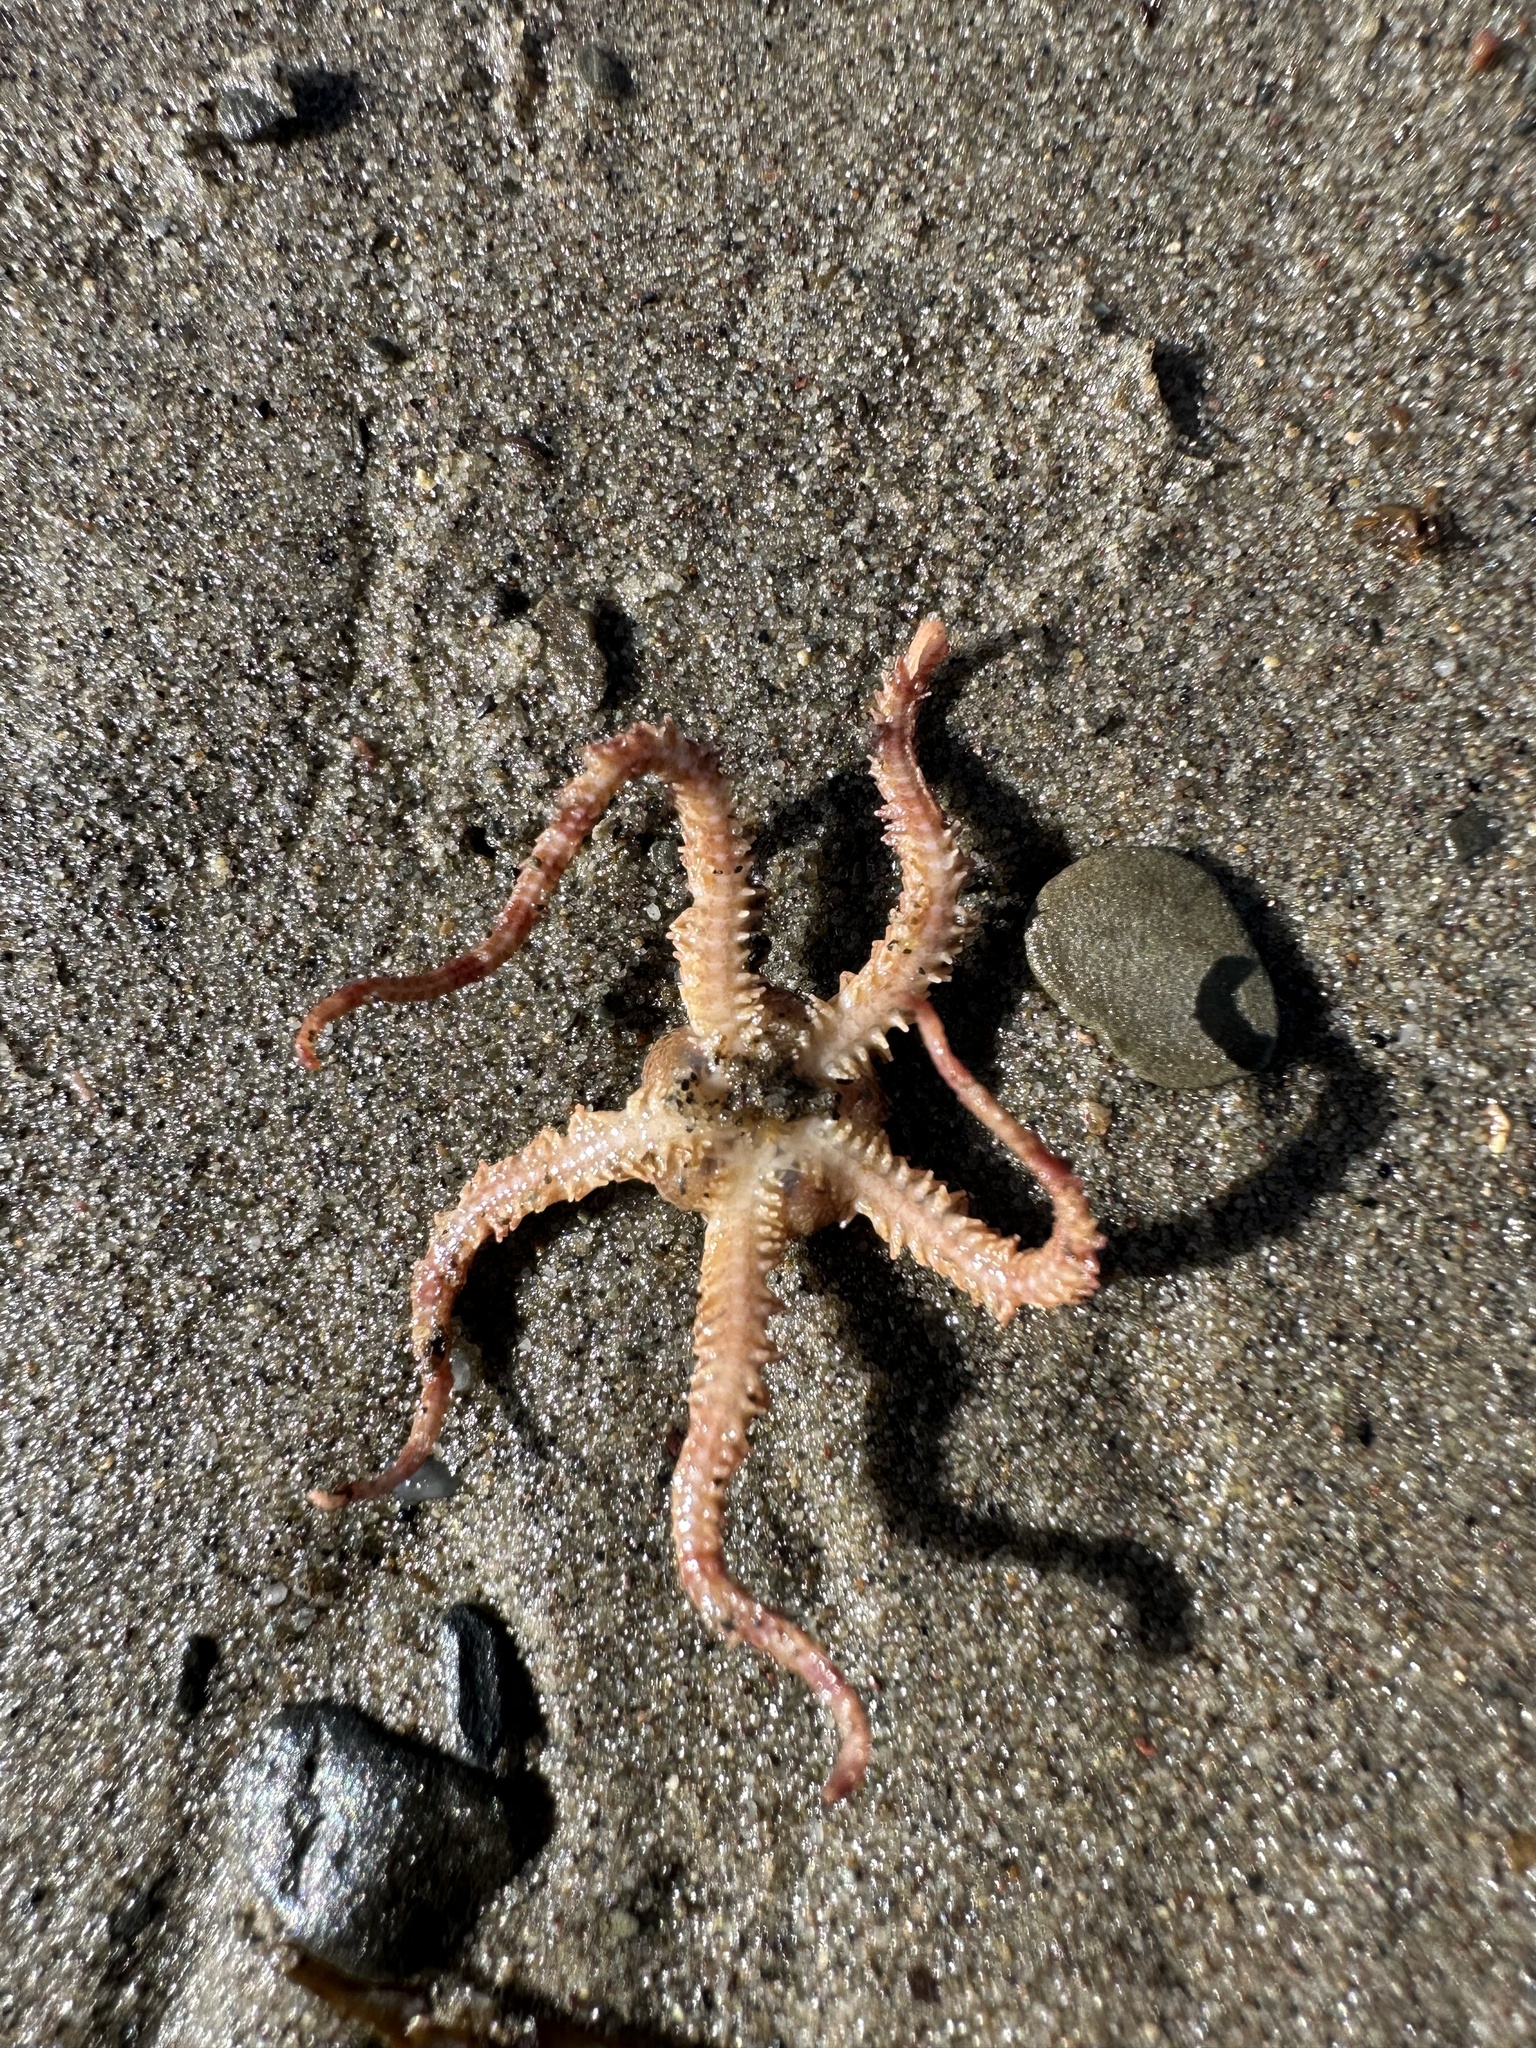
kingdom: Animalia
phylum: Echinodermata
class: Ophiuroidea
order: Amphilepidida
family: Ophiopholidae
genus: Ophiopholis
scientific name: Ophiopholis aculeata
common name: Crevice brittlestar
